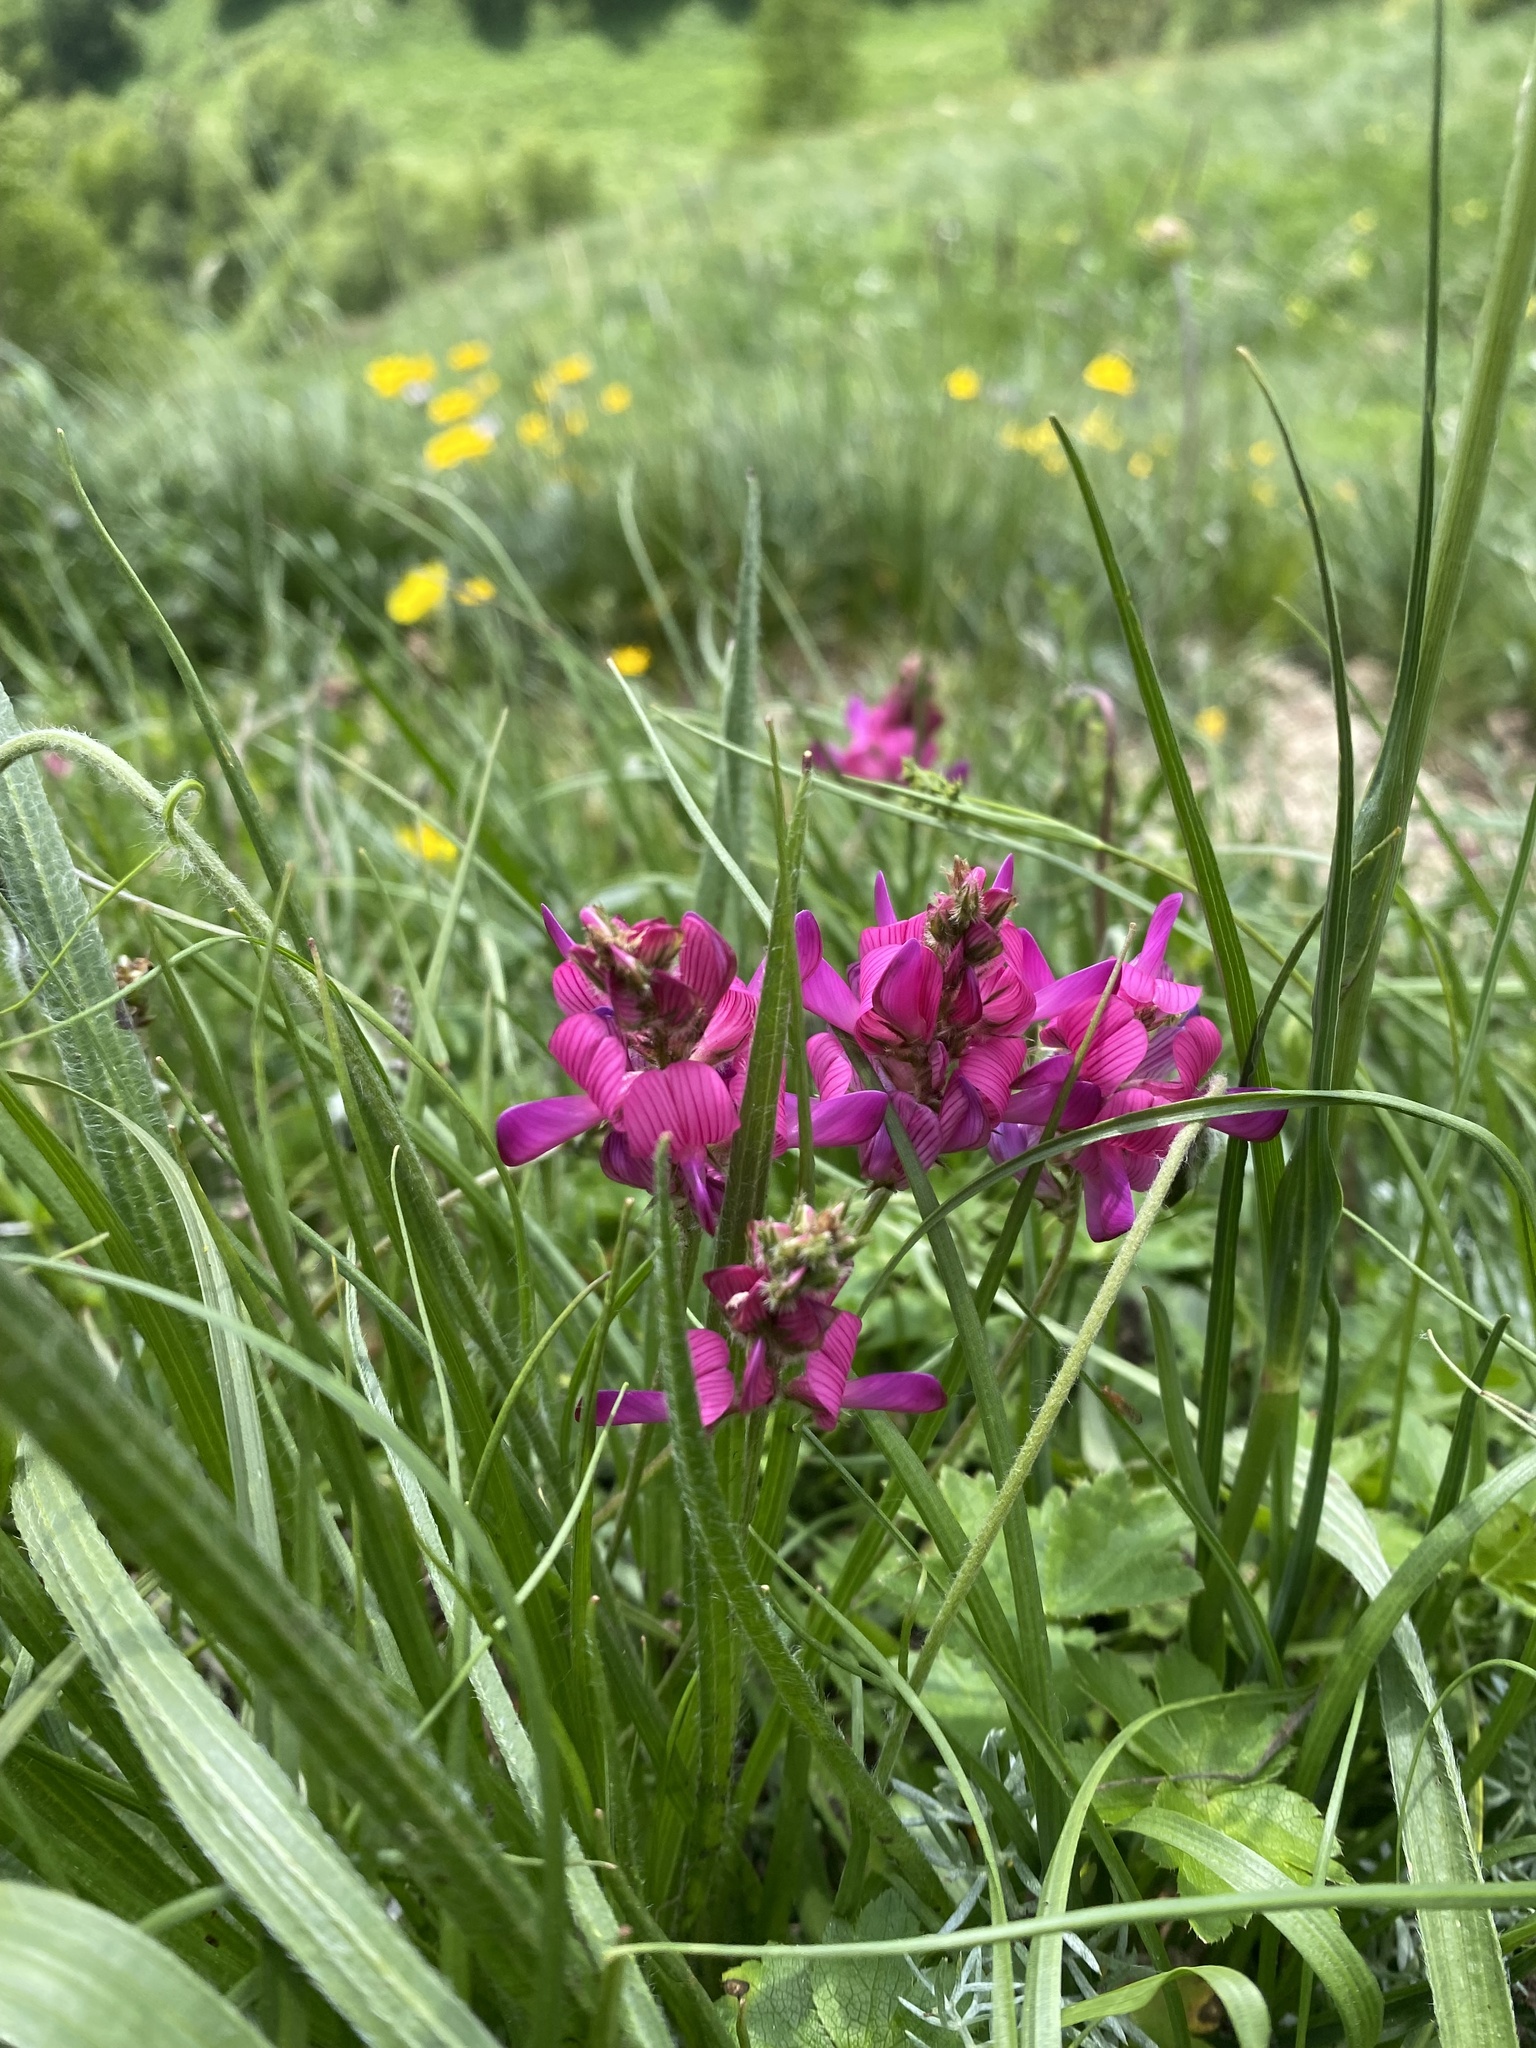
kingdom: Plantae
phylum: Tracheophyta
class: Magnoliopsida
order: Fabales
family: Fabaceae
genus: Onobrychis
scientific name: Onobrychis biebersteinii
